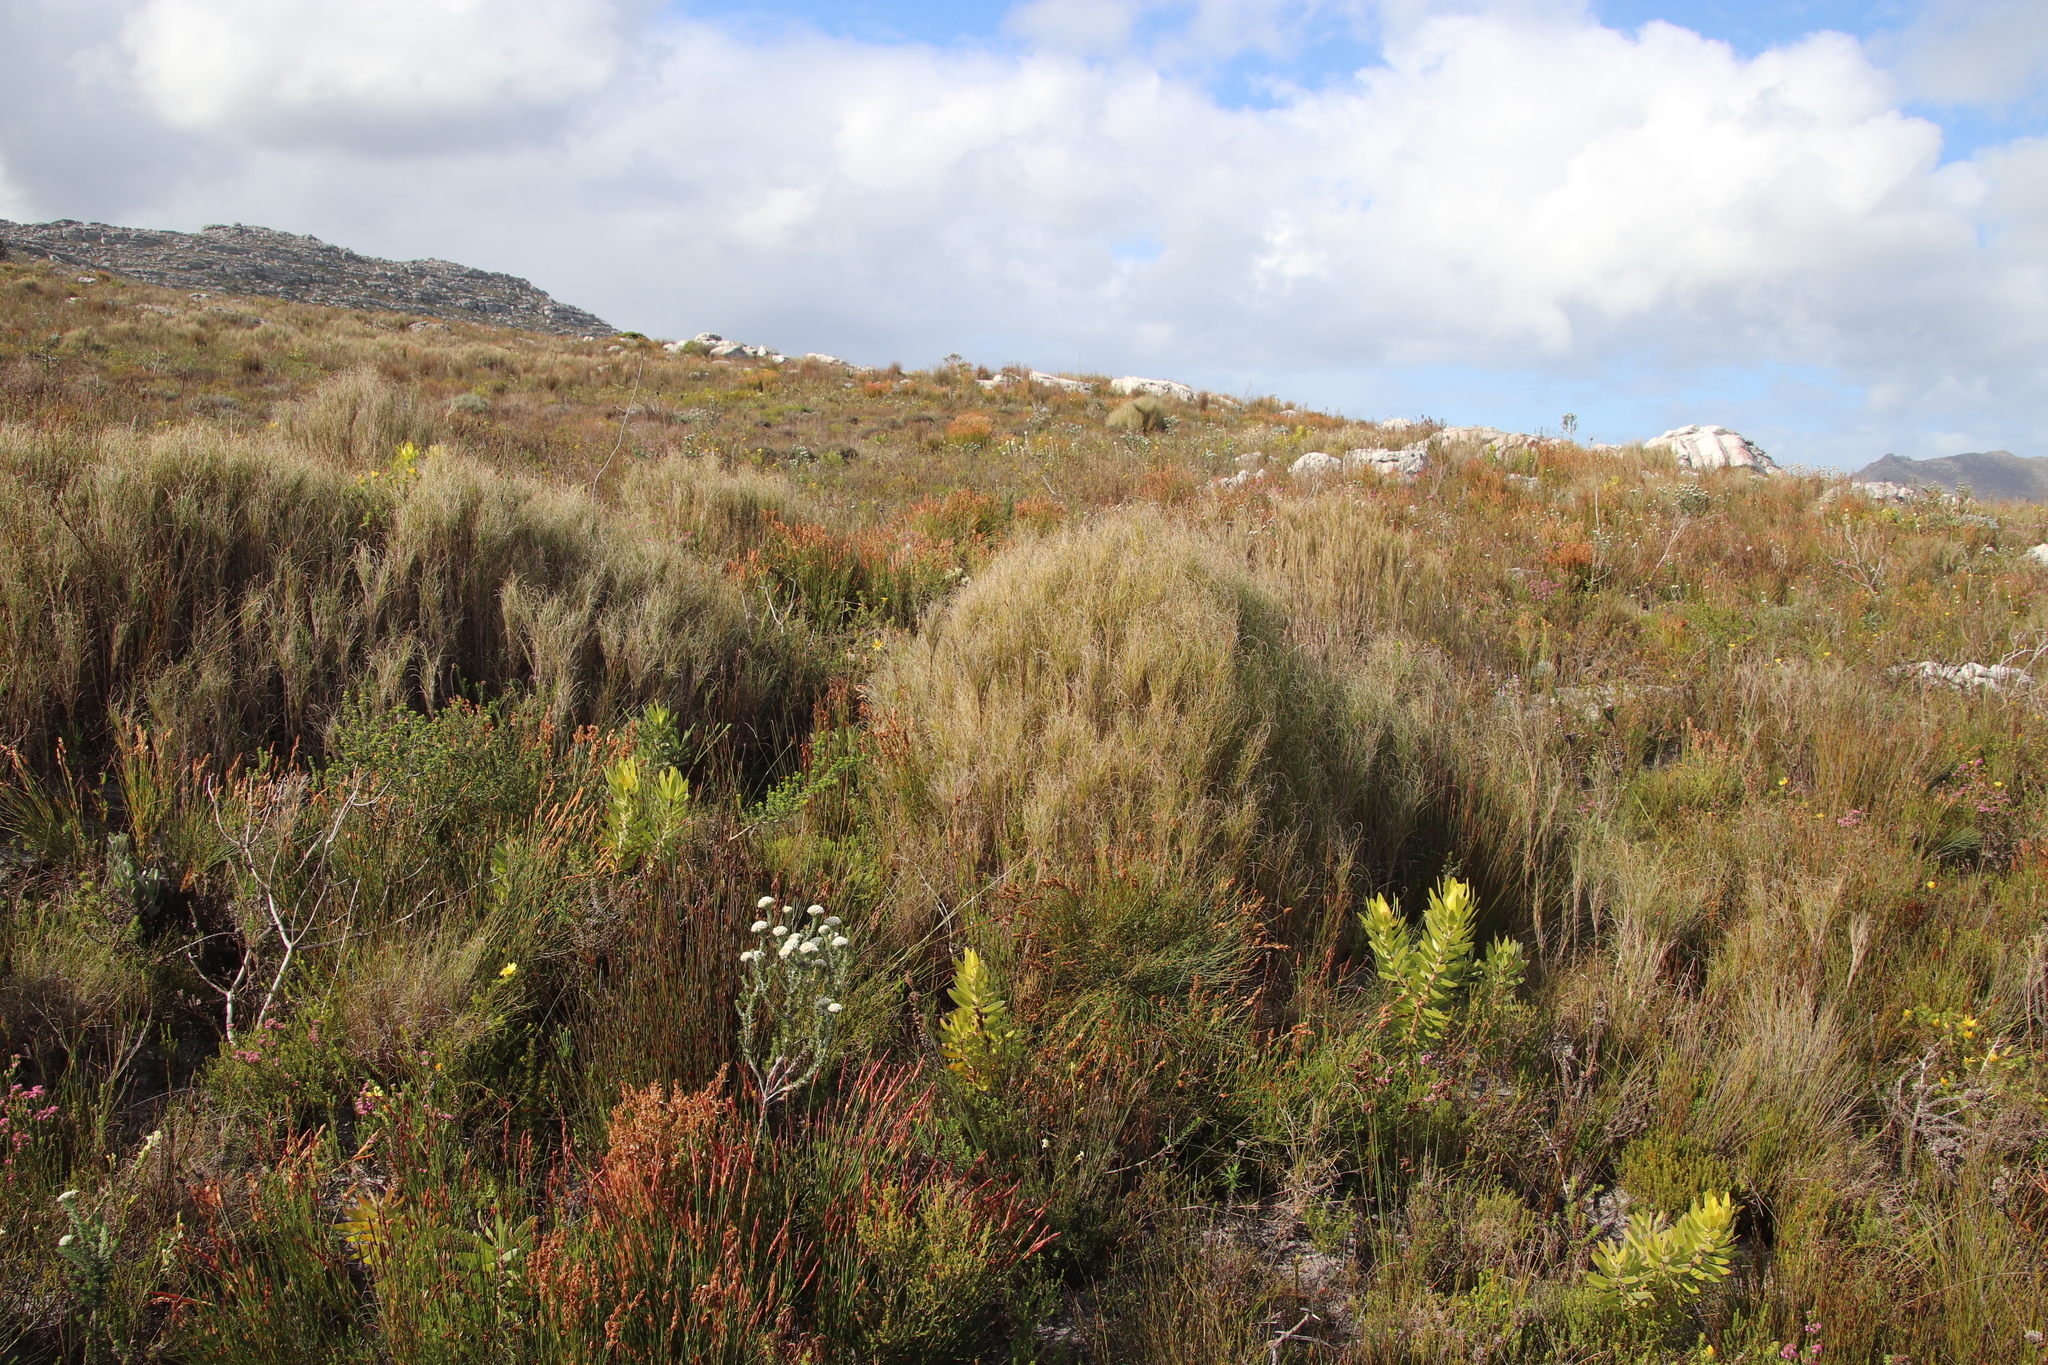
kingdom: Plantae
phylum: Tracheophyta
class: Liliopsida
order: Poales
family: Poaceae
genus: Pseudopentameris
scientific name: Pseudopentameris macrantha
